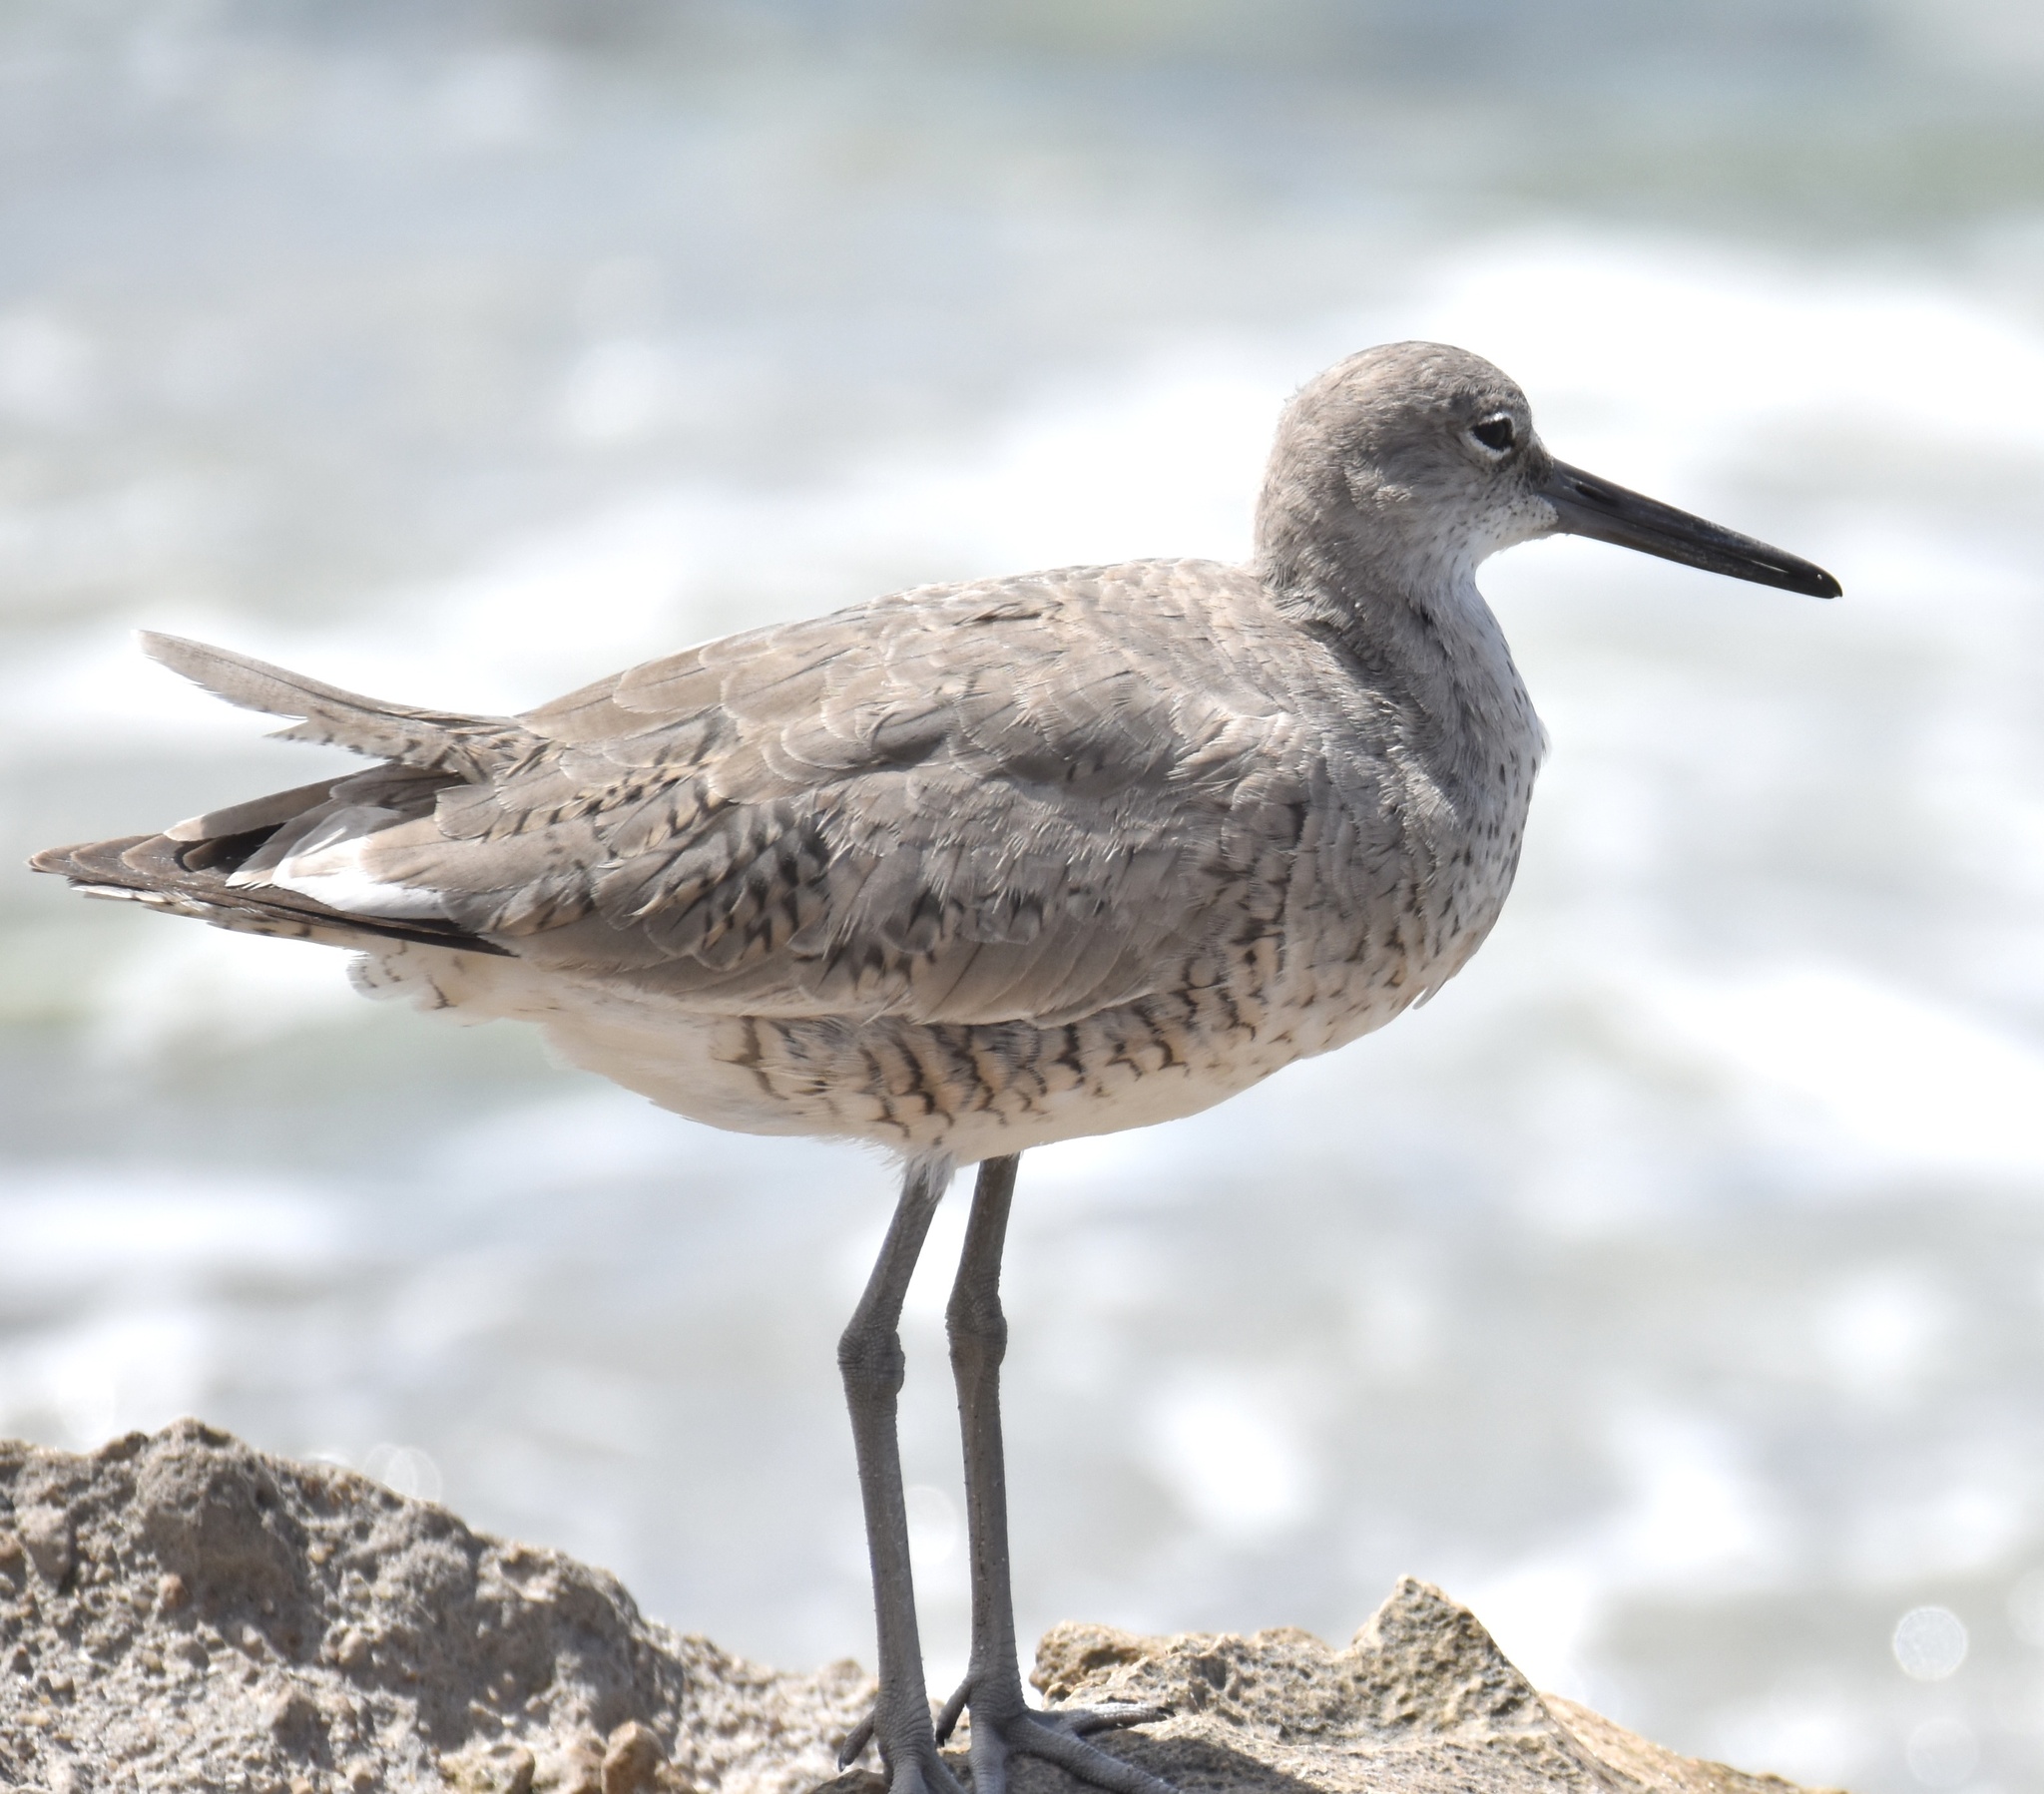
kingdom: Animalia
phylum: Chordata
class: Aves
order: Charadriiformes
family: Scolopacidae
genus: Tringa
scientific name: Tringa semipalmata
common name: Willet
